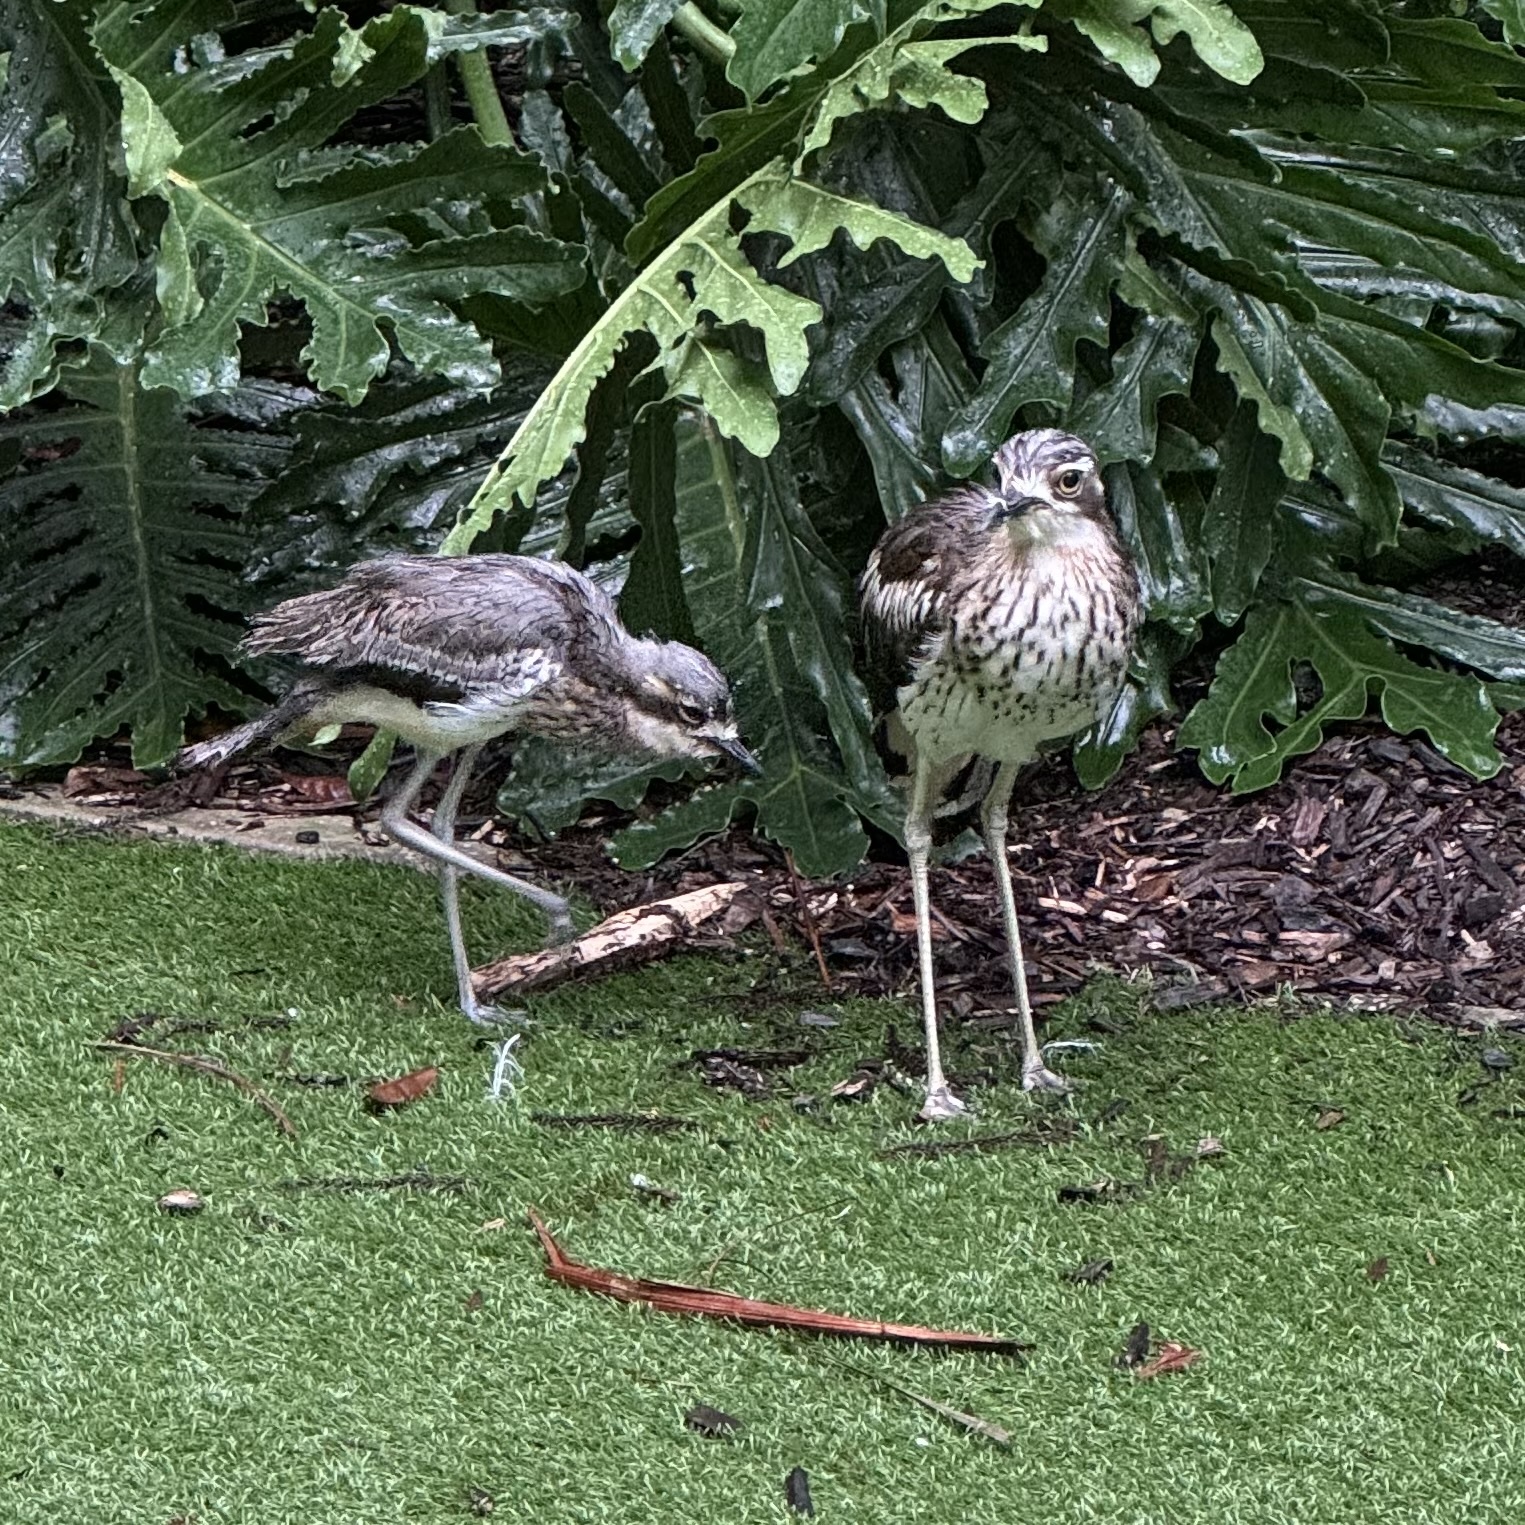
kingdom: Animalia
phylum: Chordata
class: Aves
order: Charadriiformes
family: Burhinidae
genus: Burhinus
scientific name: Burhinus grallarius
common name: Bush stone-curlew
